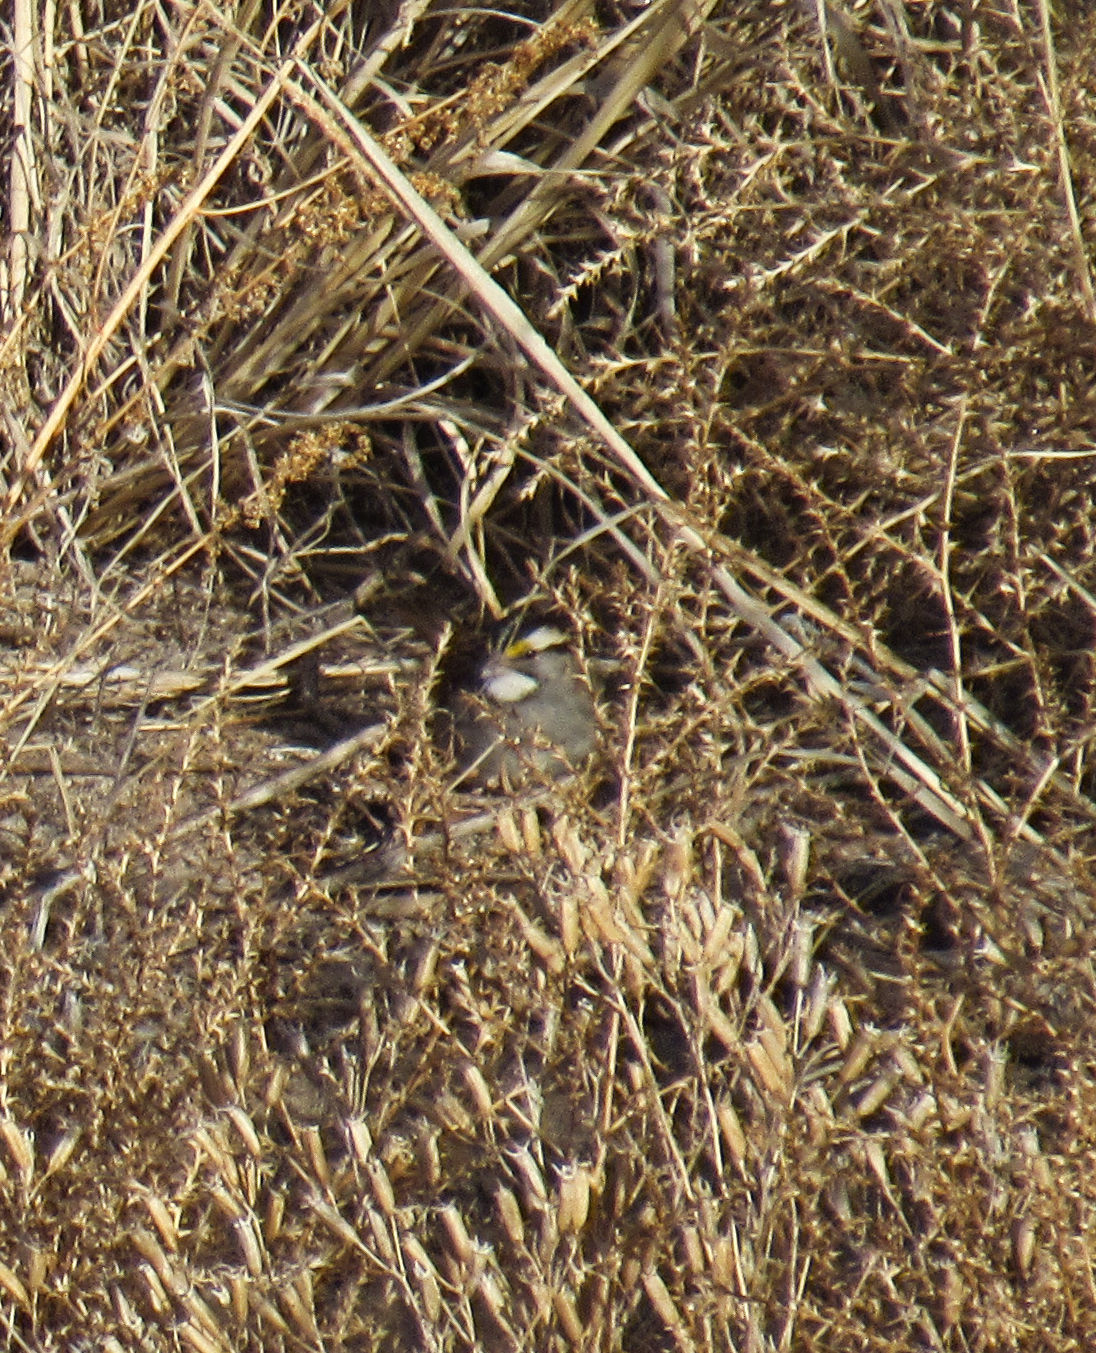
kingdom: Animalia
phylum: Chordata
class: Aves
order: Passeriformes
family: Passerellidae
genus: Zonotrichia
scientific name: Zonotrichia albicollis
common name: White-throated sparrow
